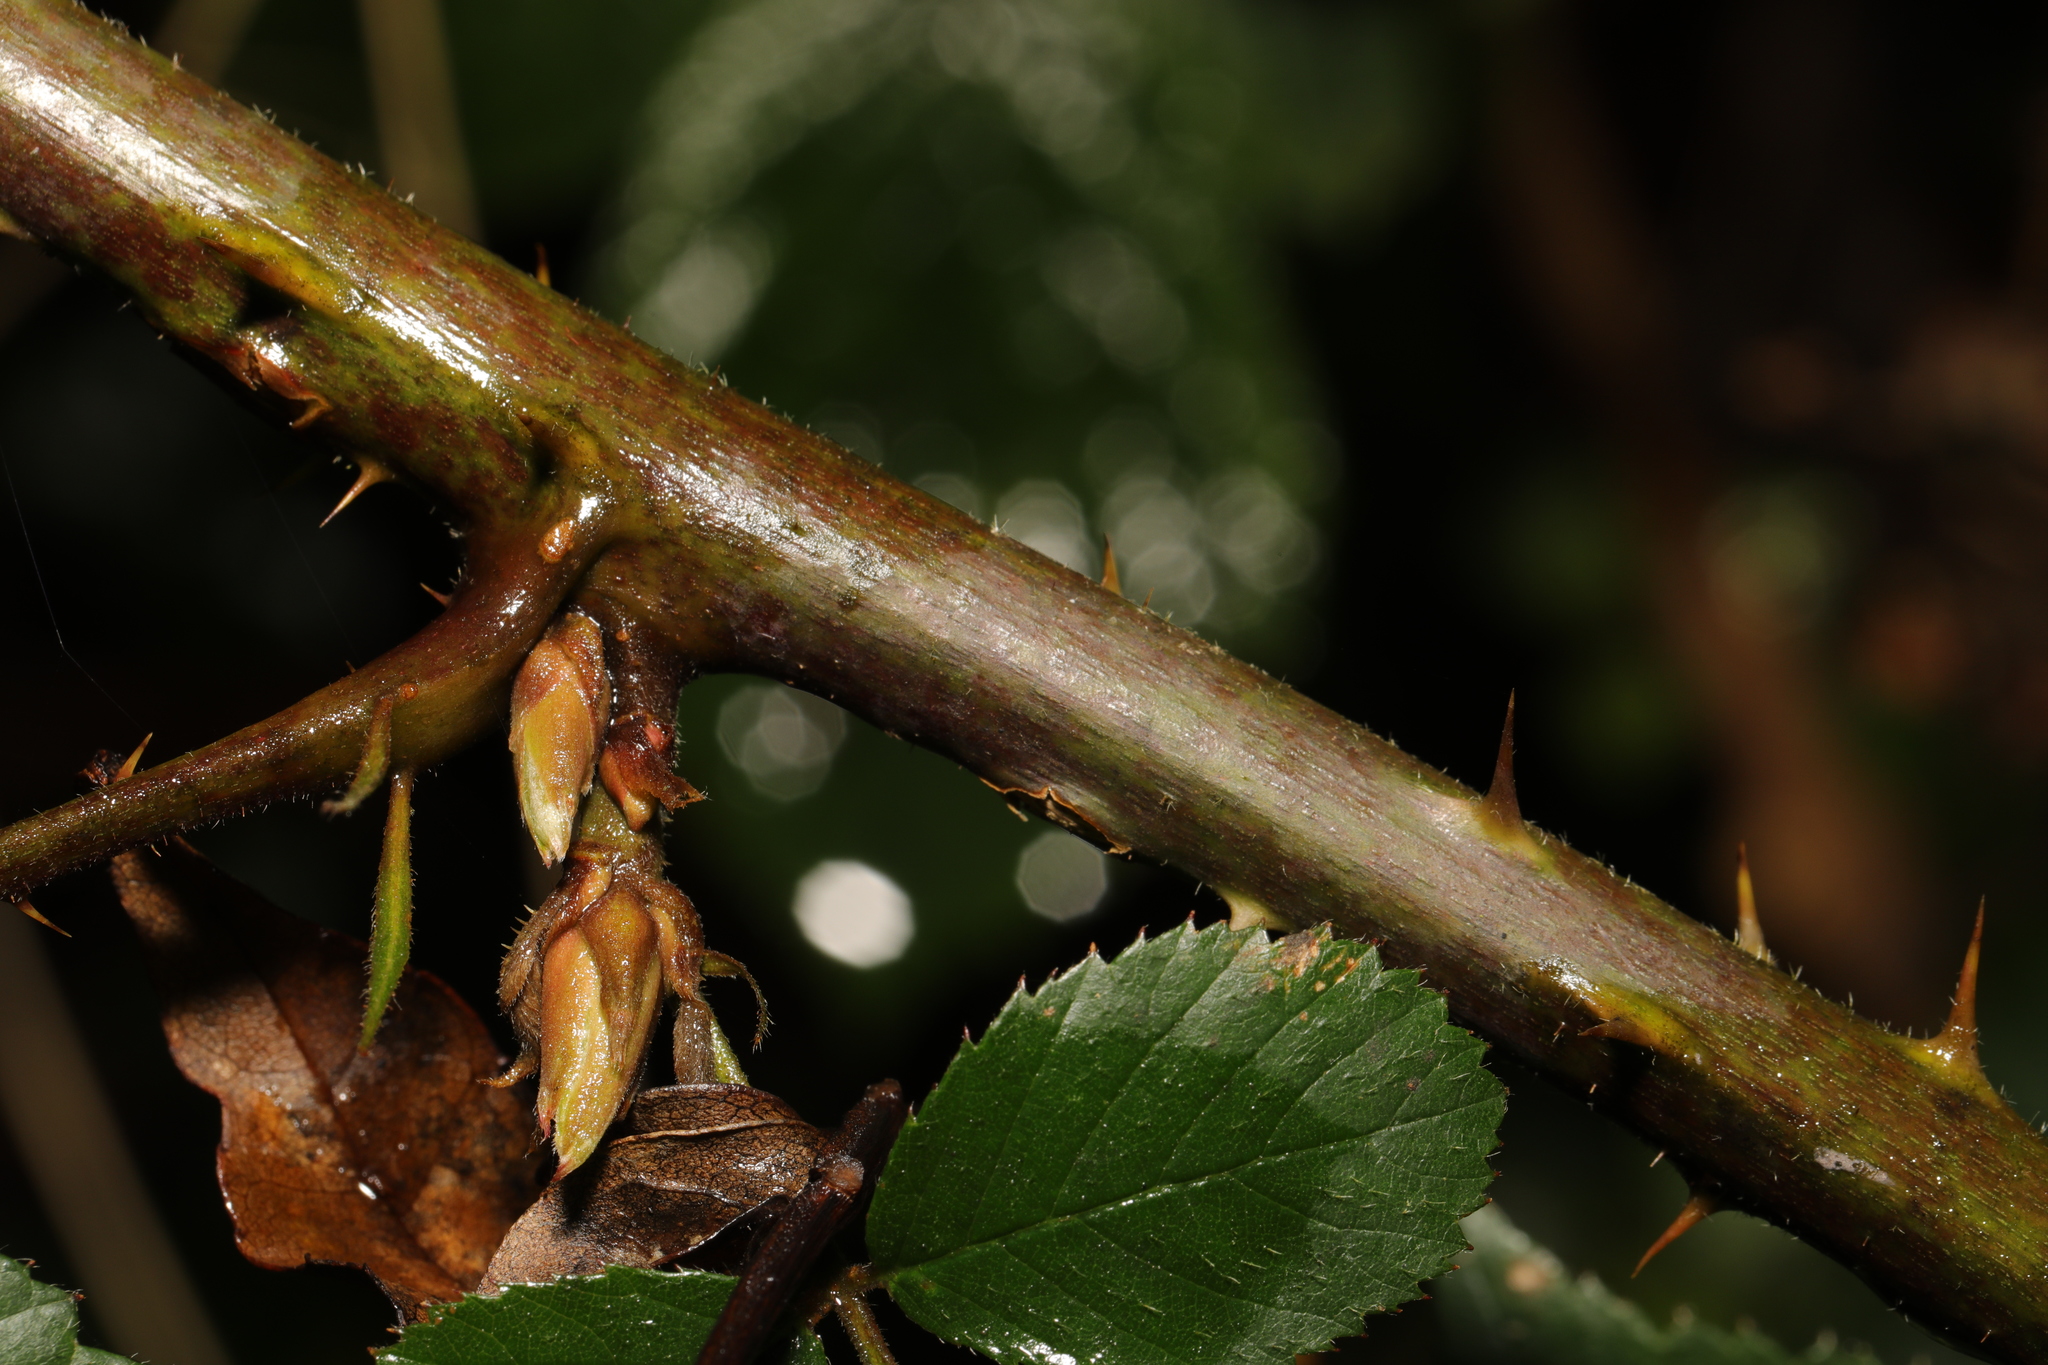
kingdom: Plantae
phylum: Tracheophyta
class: Magnoliopsida
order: Rosales
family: Rosaceae
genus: Rubus
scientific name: Rubus wirralensis
